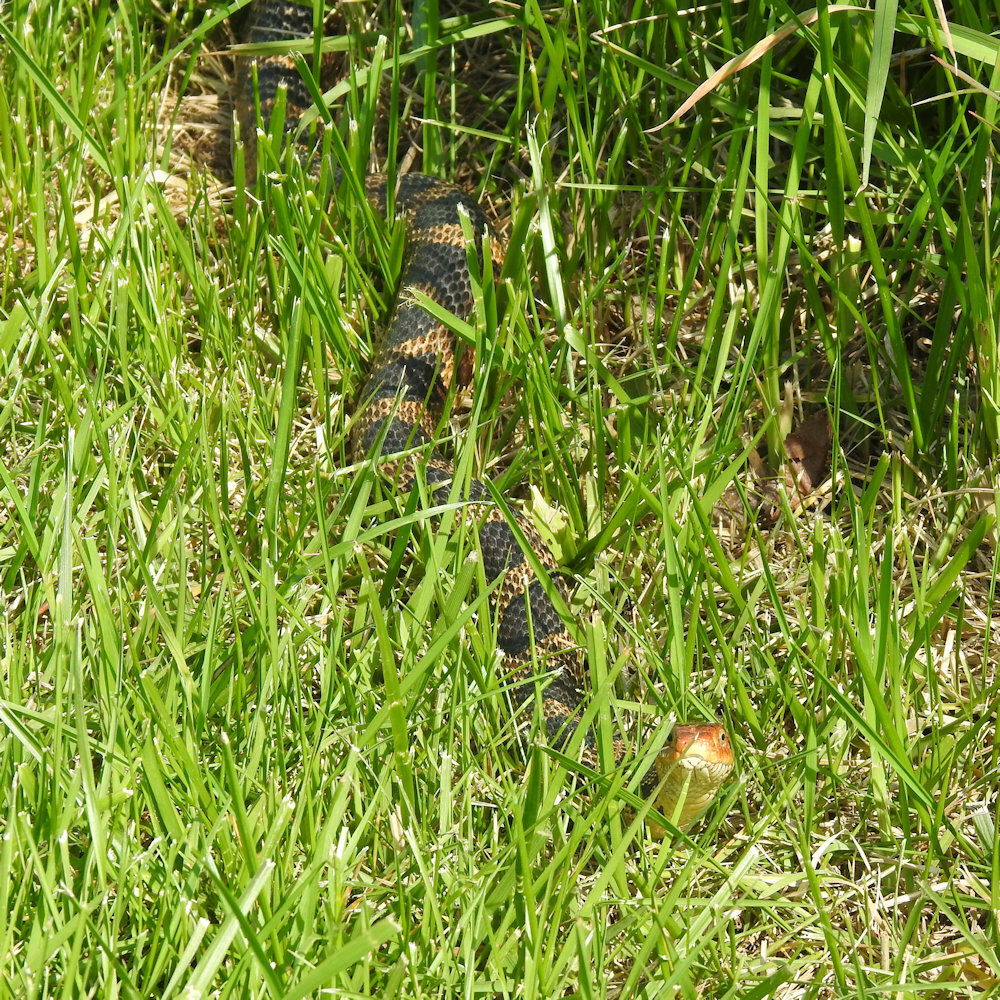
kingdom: Animalia
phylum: Chordata
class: Squamata
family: Colubridae
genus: Pantherophis
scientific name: Pantherophis vulpinus
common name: Eastern fox snake
